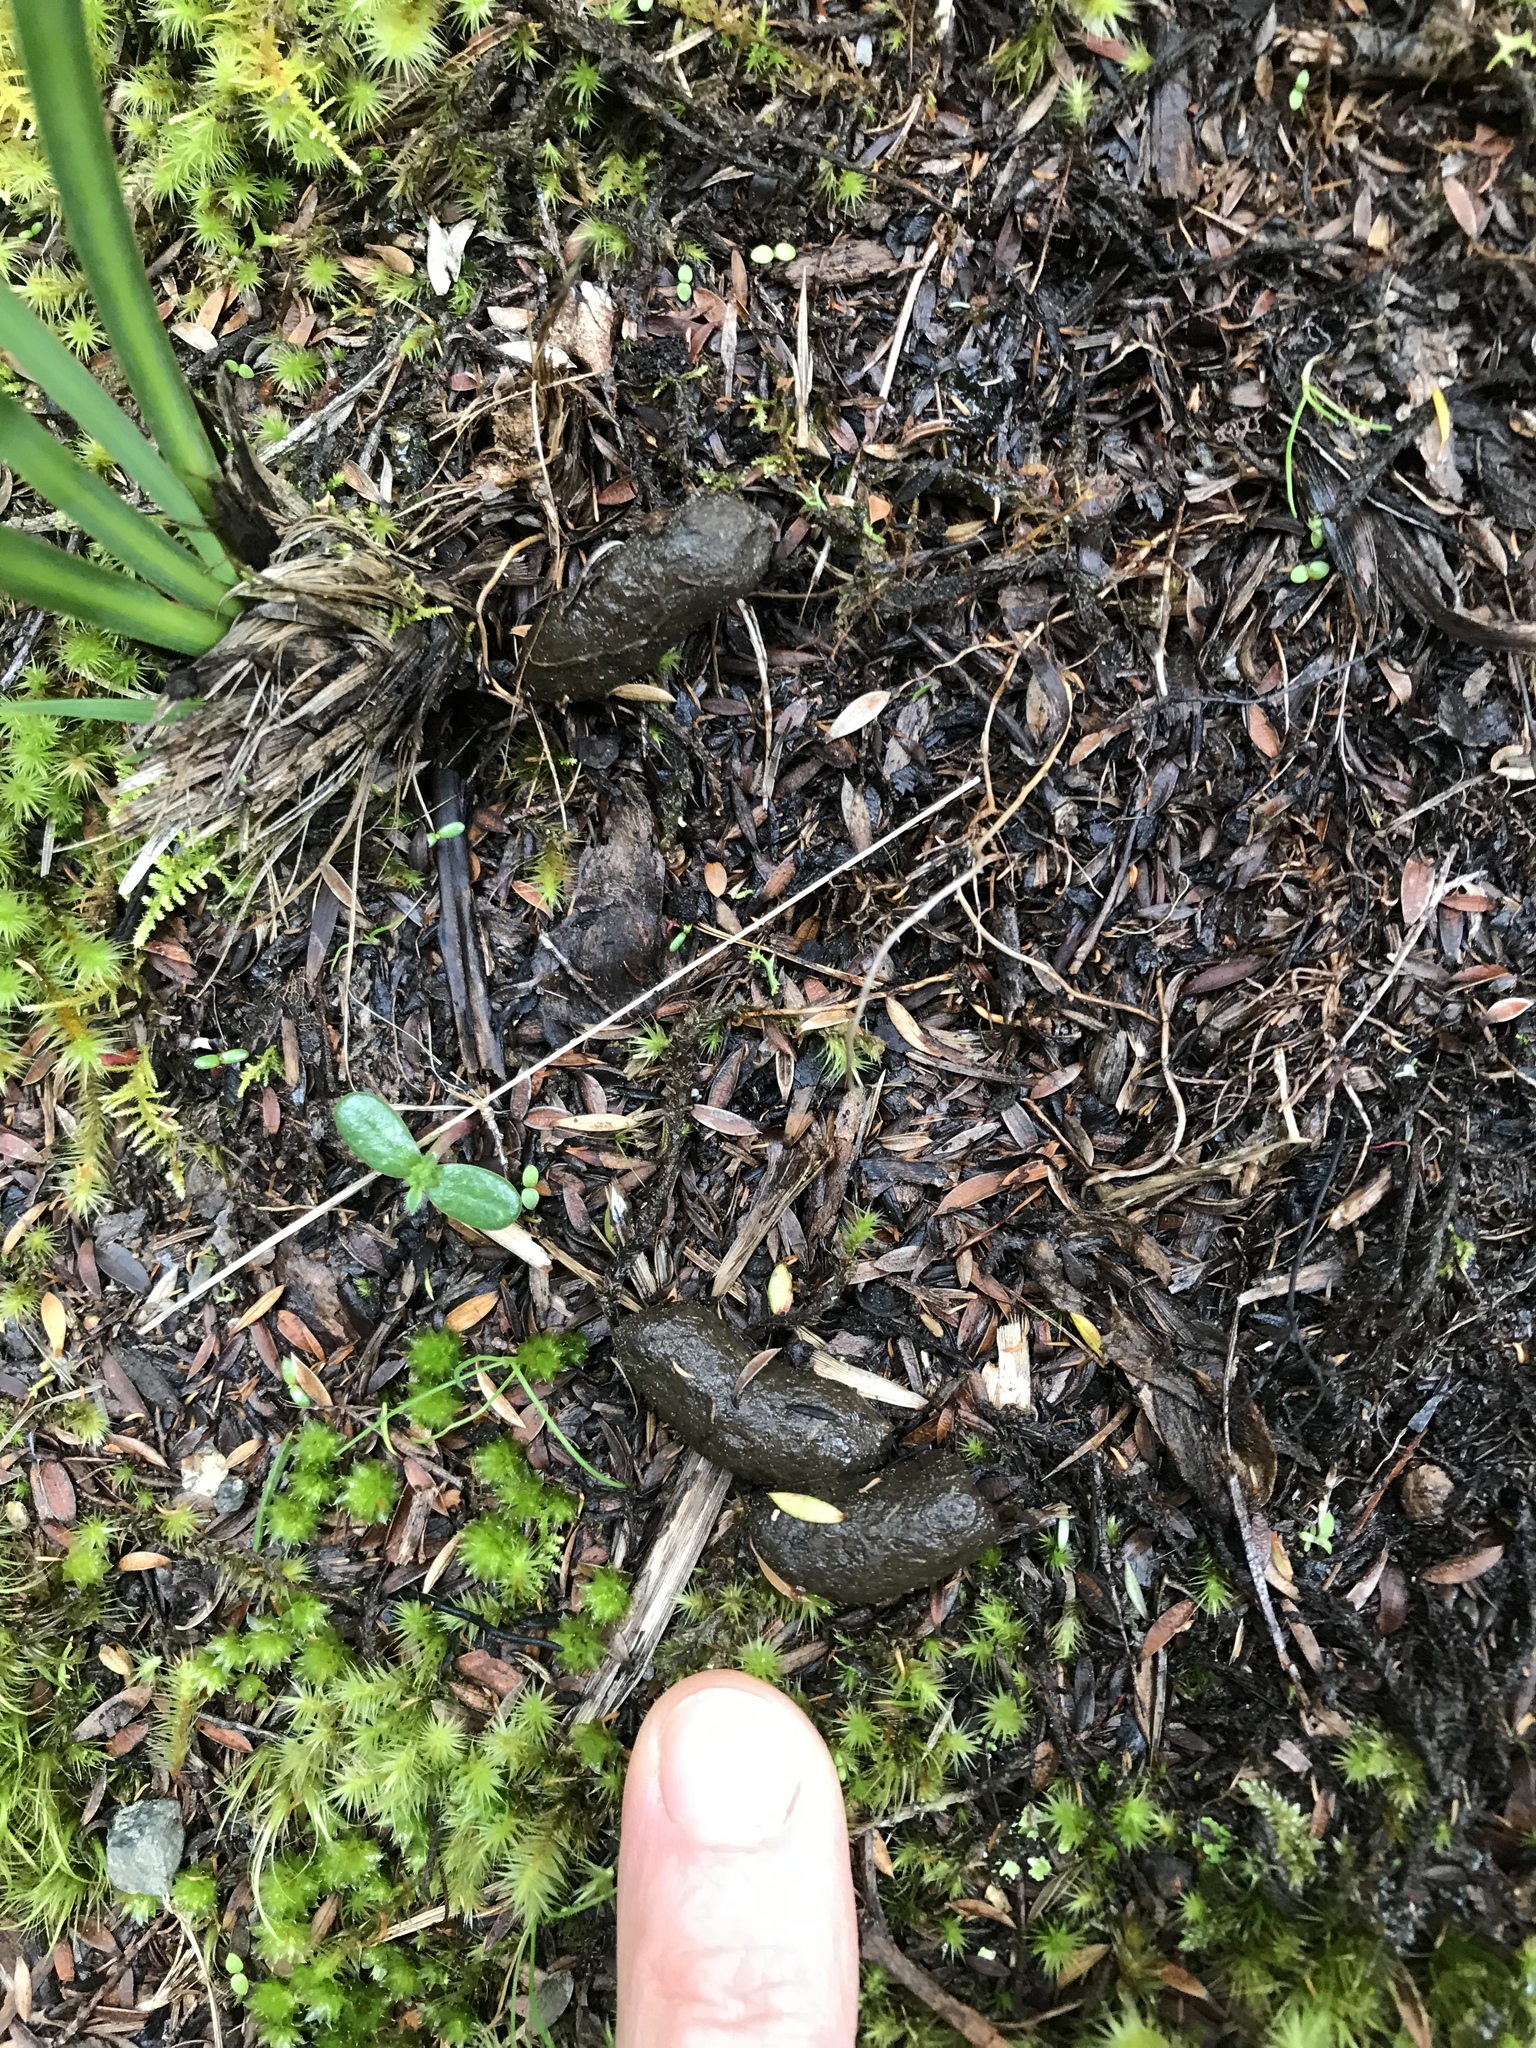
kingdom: Animalia
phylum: Chordata
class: Mammalia
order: Diprotodontia
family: Phalangeridae
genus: Trichosurus
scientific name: Trichosurus vulpecula
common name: Common brushtail
